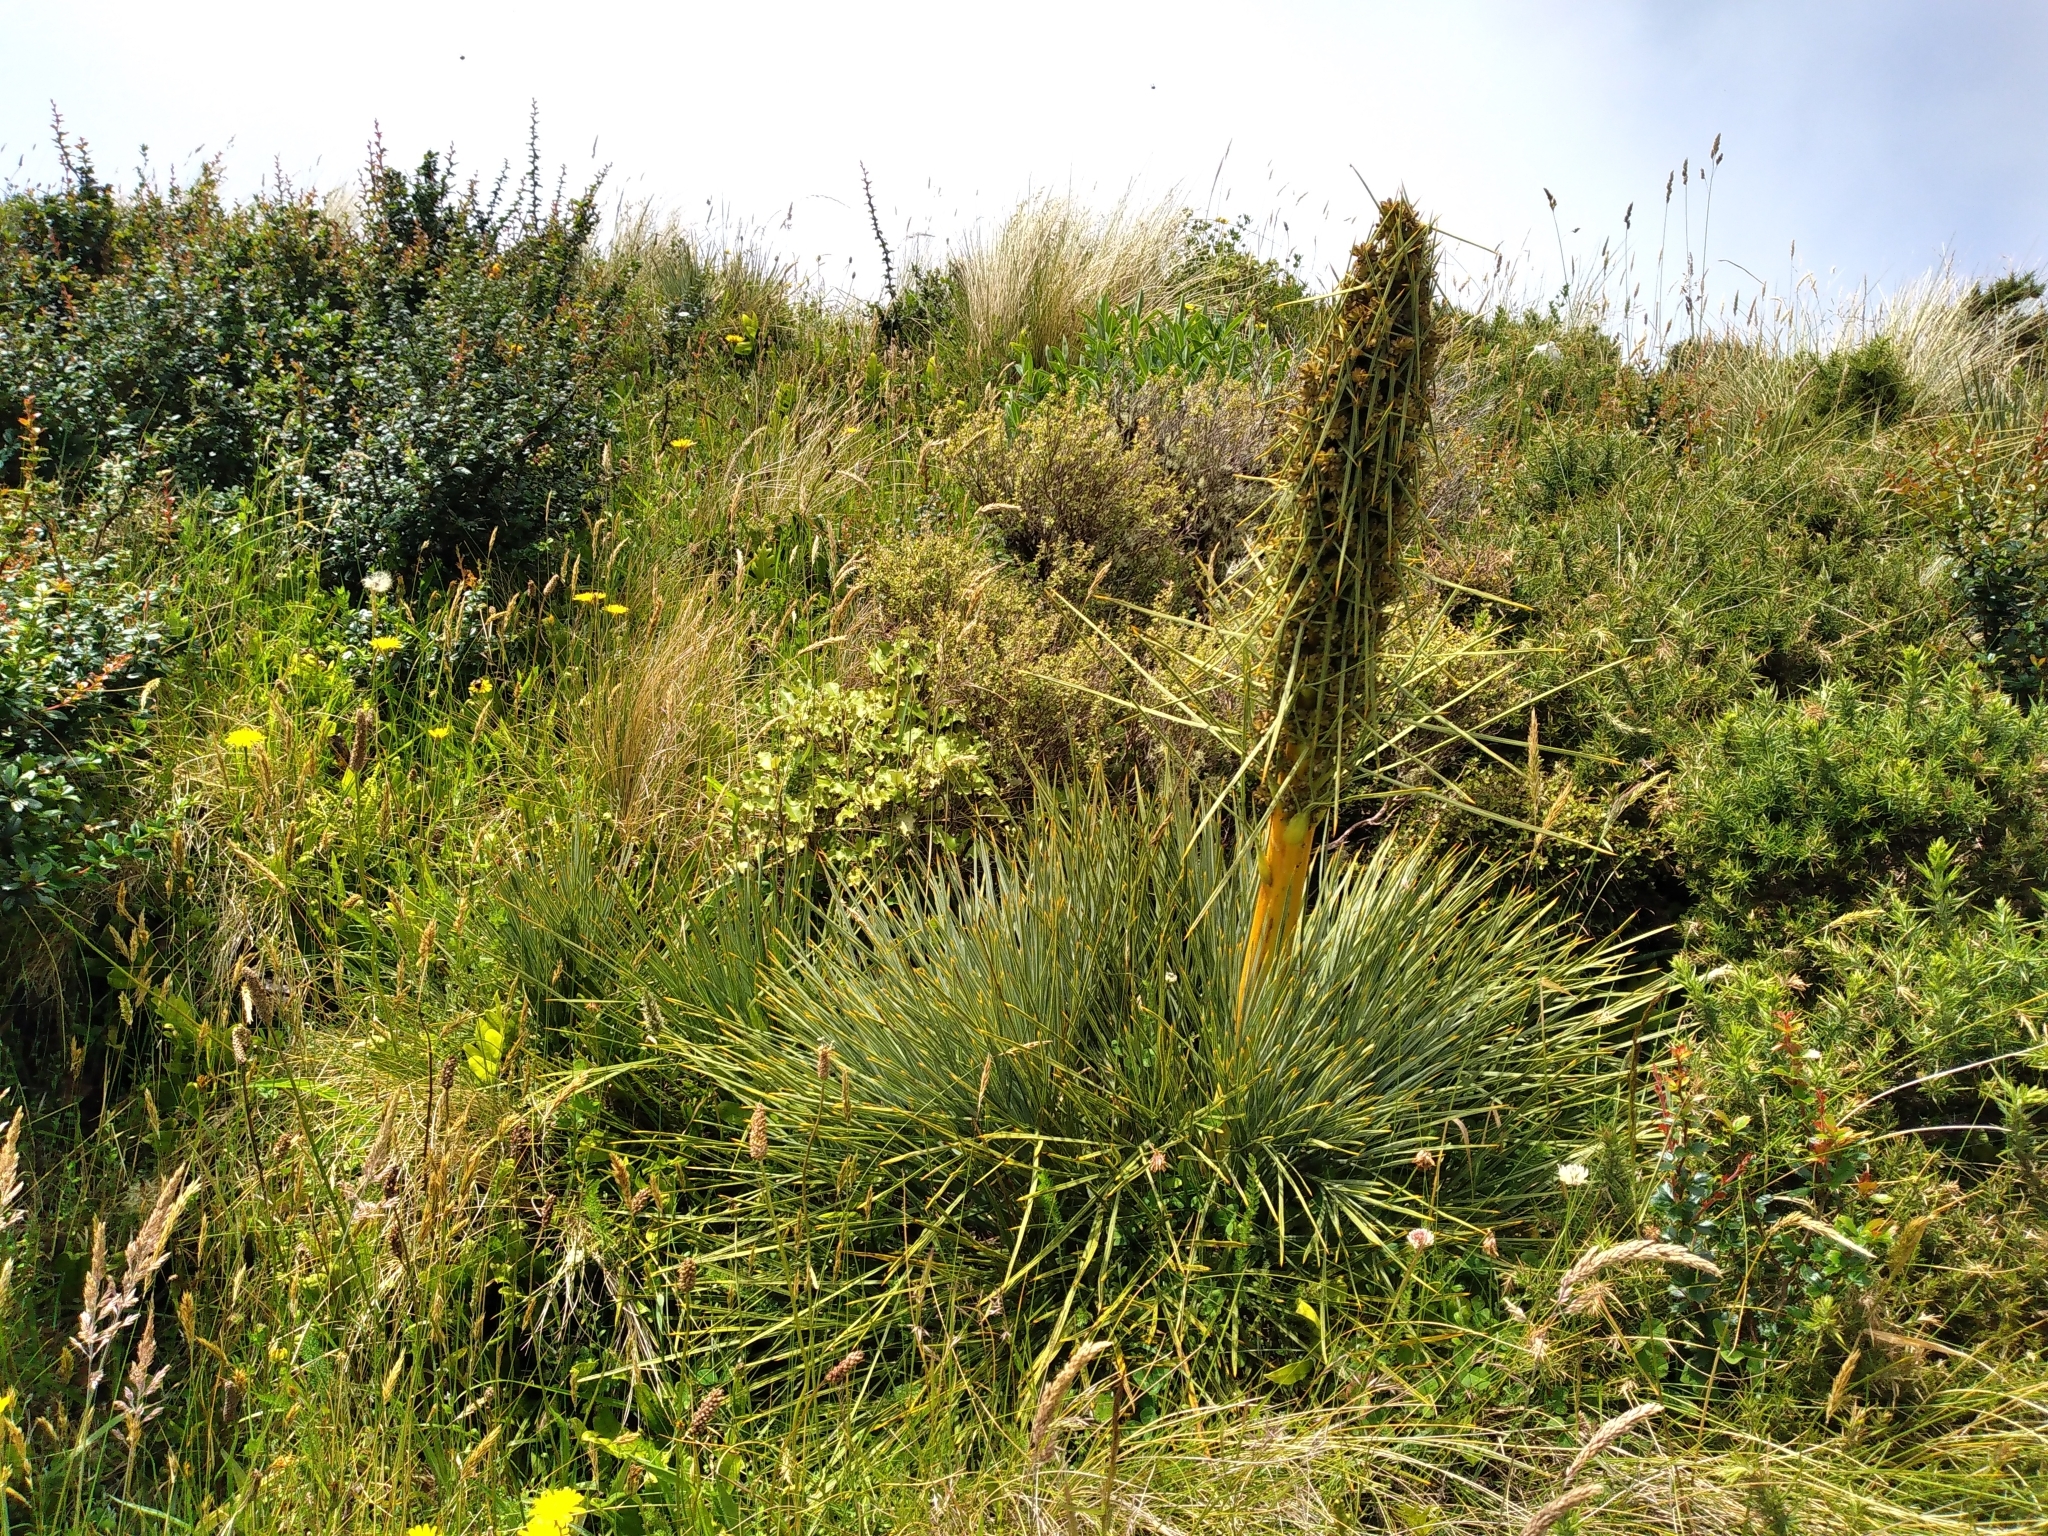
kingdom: Plantae
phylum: Tracheophyta
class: Magnoliopsida
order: Apiales
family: Apiaceae
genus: Aciphylla
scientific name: Aciphylla squarrosa
